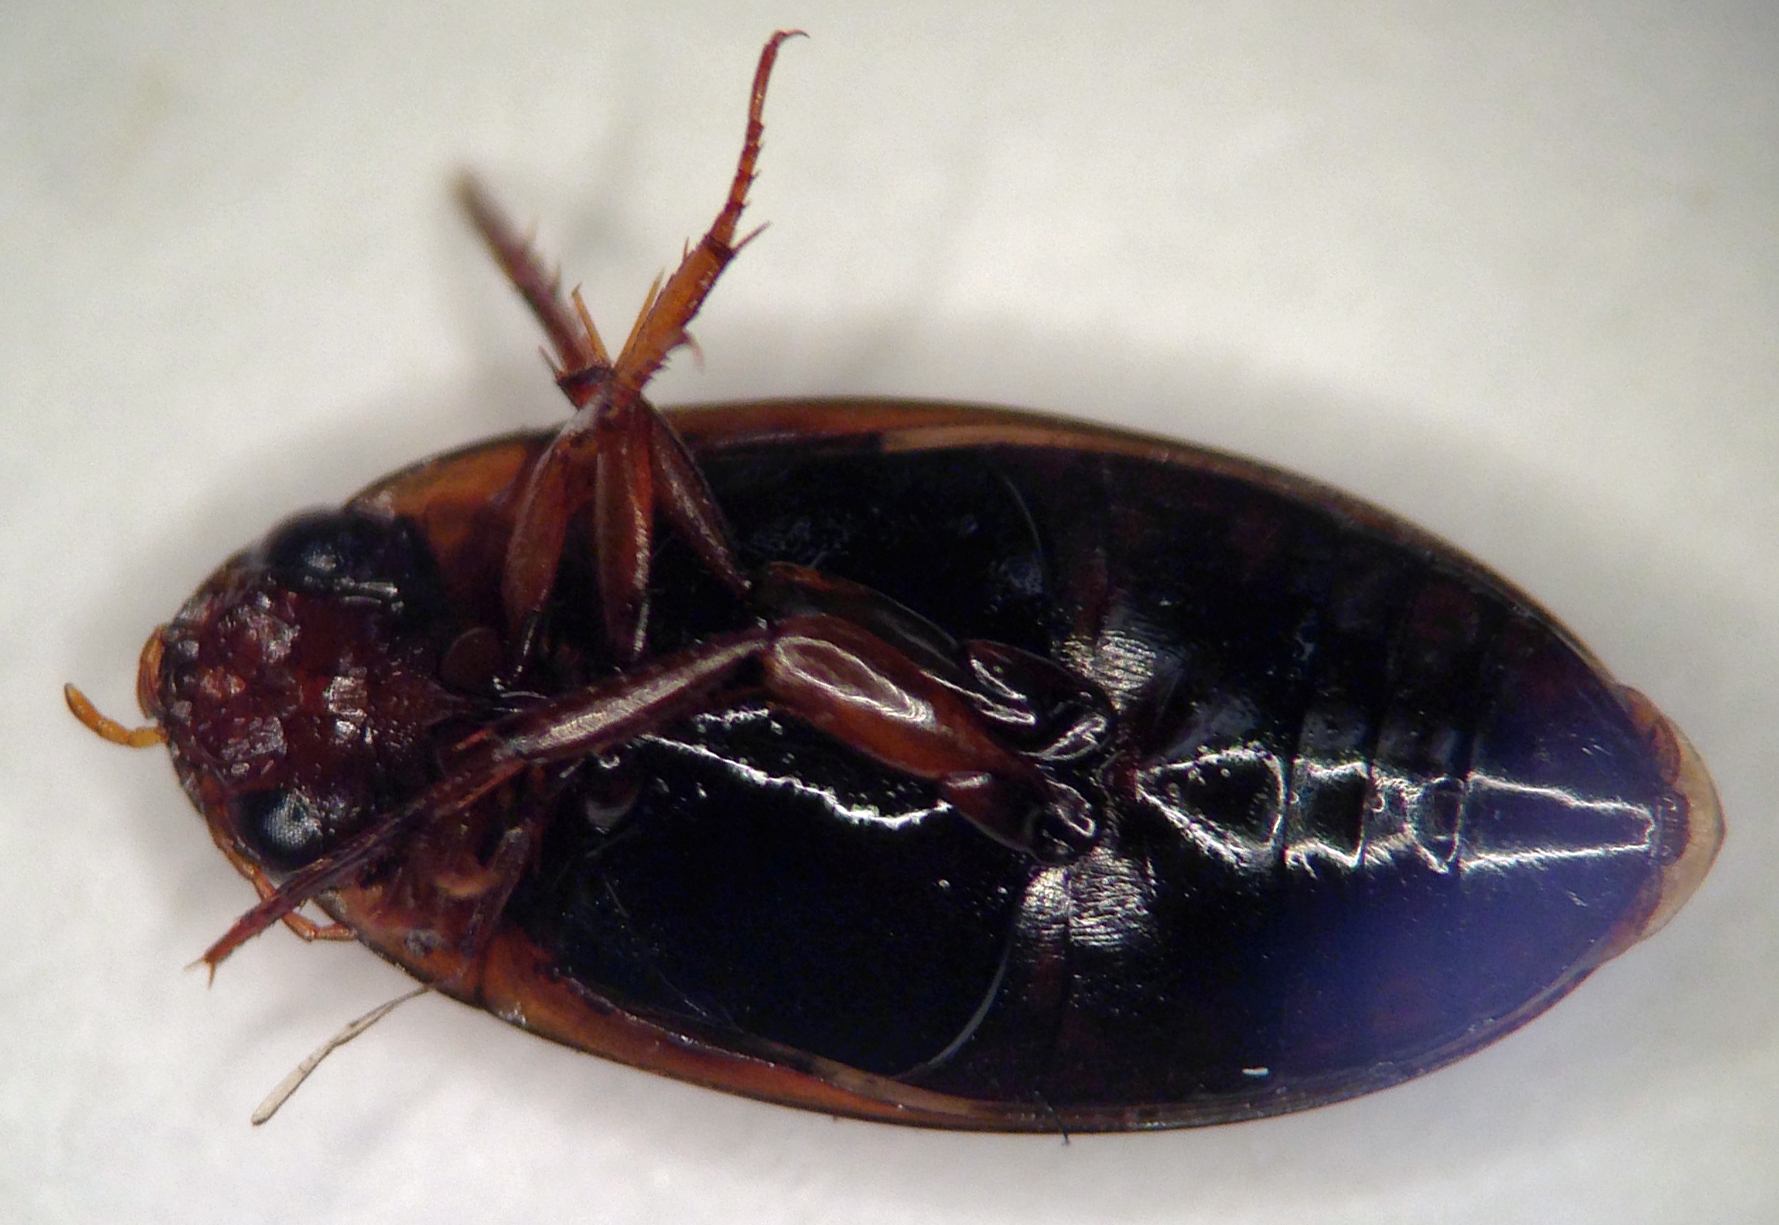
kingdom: Animalia
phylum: Arthropoda
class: Insecta
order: Coleoptera
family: Dytiscidae
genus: Copelatus
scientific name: Copelatus chevrolati
